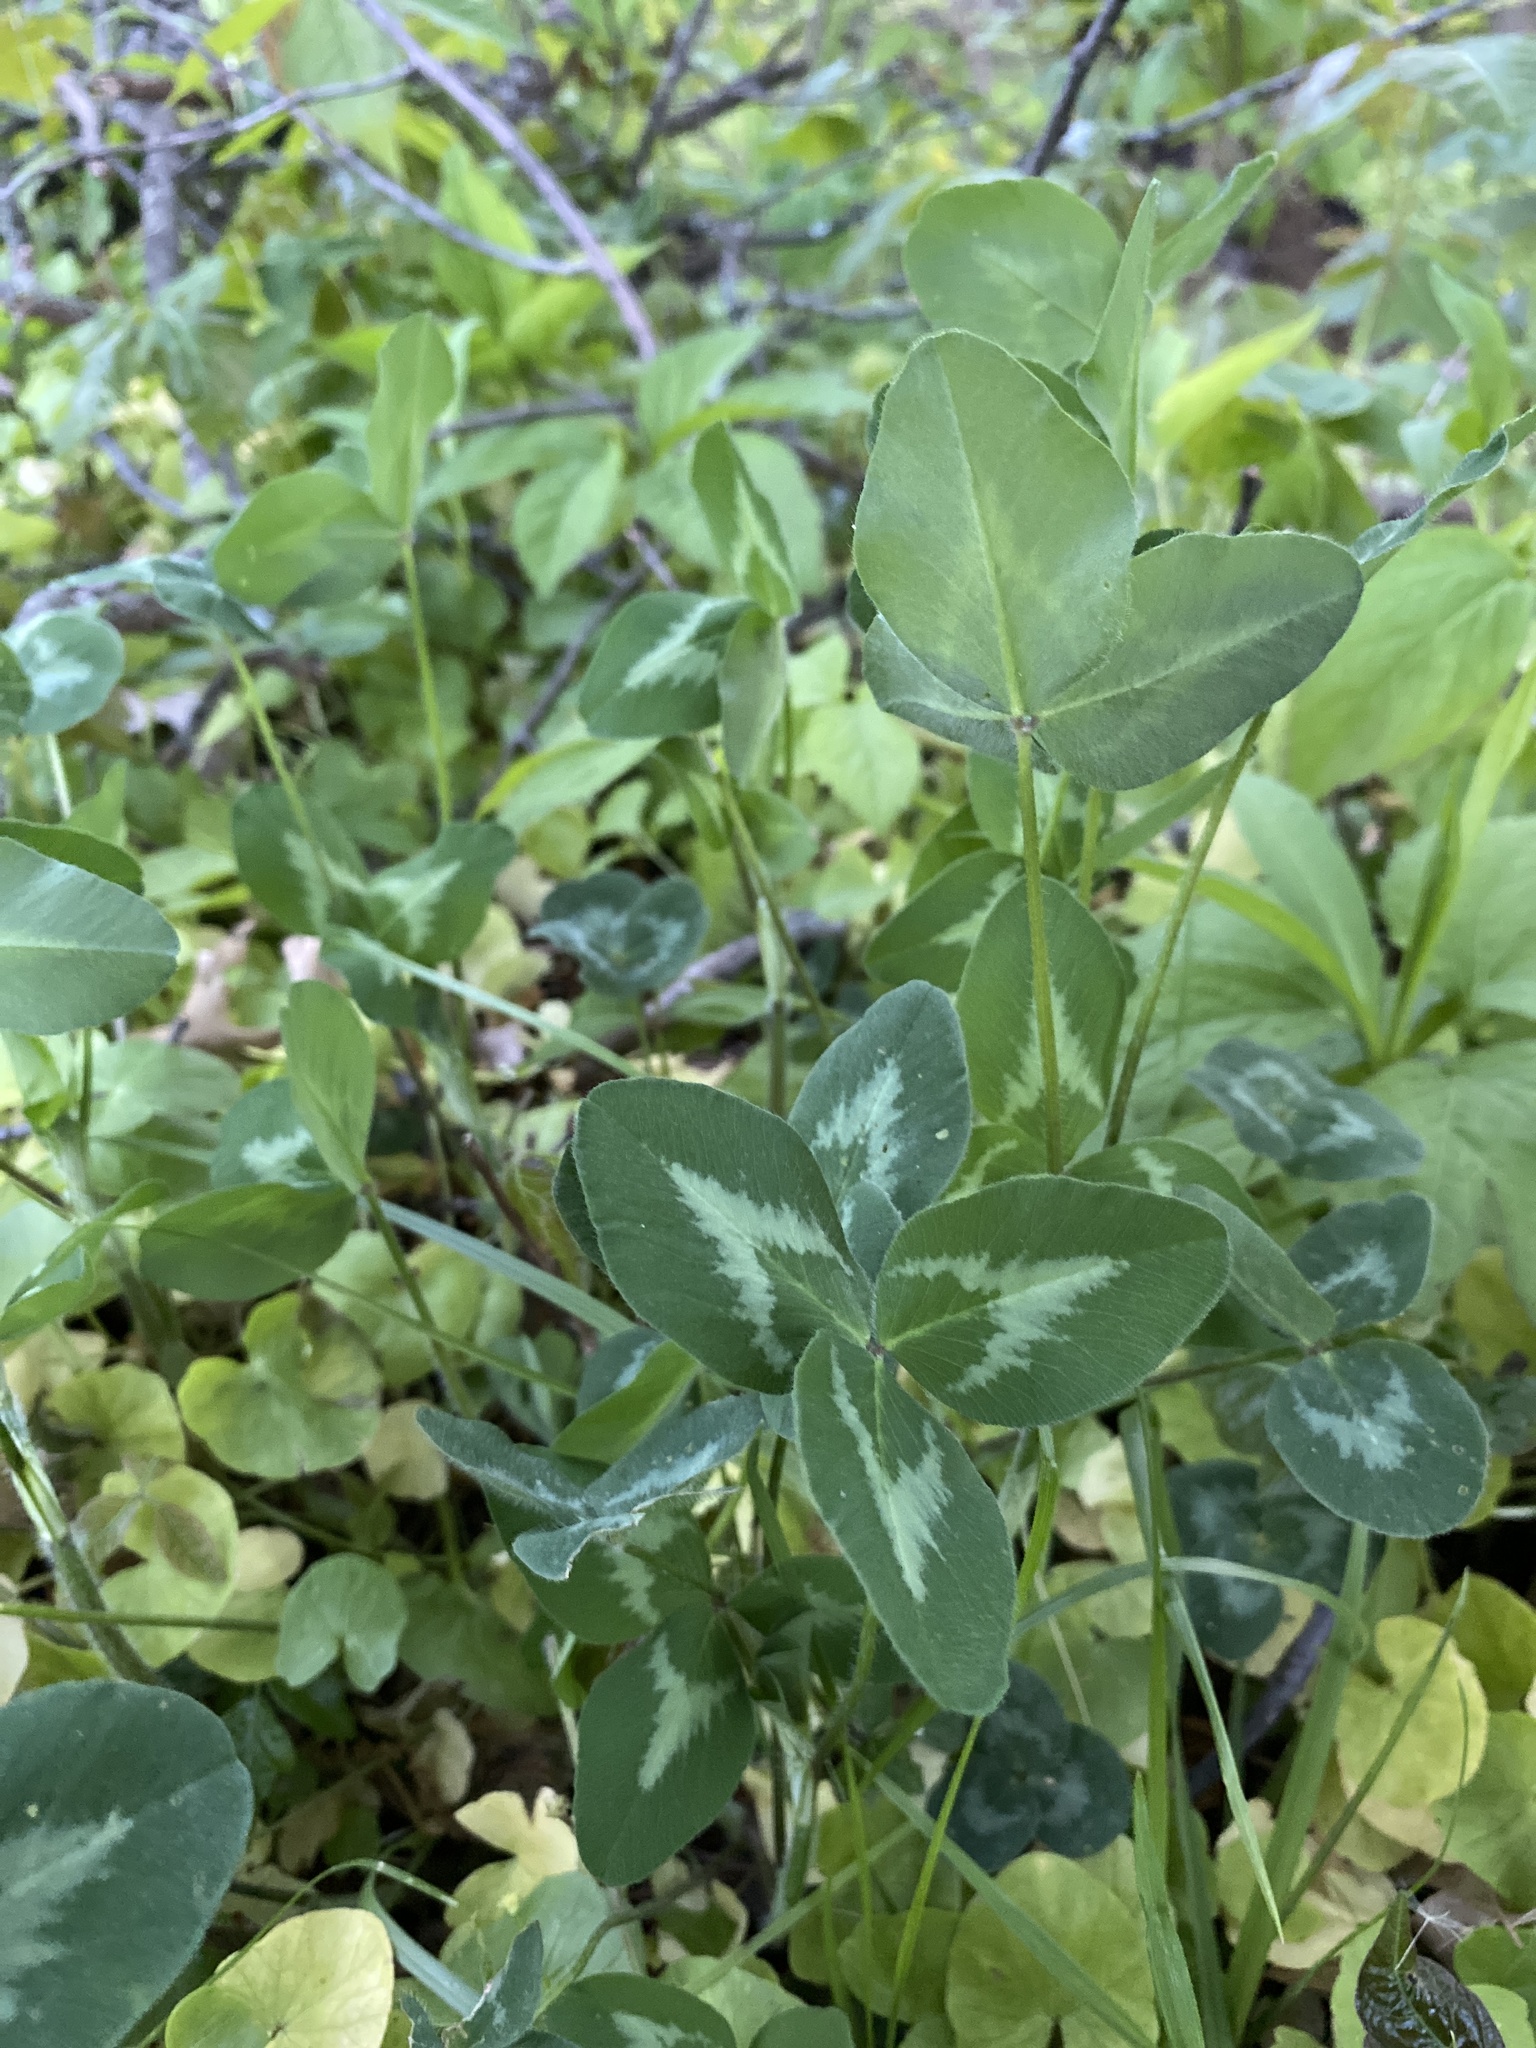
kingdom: Plantae
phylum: Tracheophyta
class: Magnoliopsida
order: Fabales
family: Fabaceae
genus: Trifolium
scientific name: Trifolium pratense
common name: Red clover
